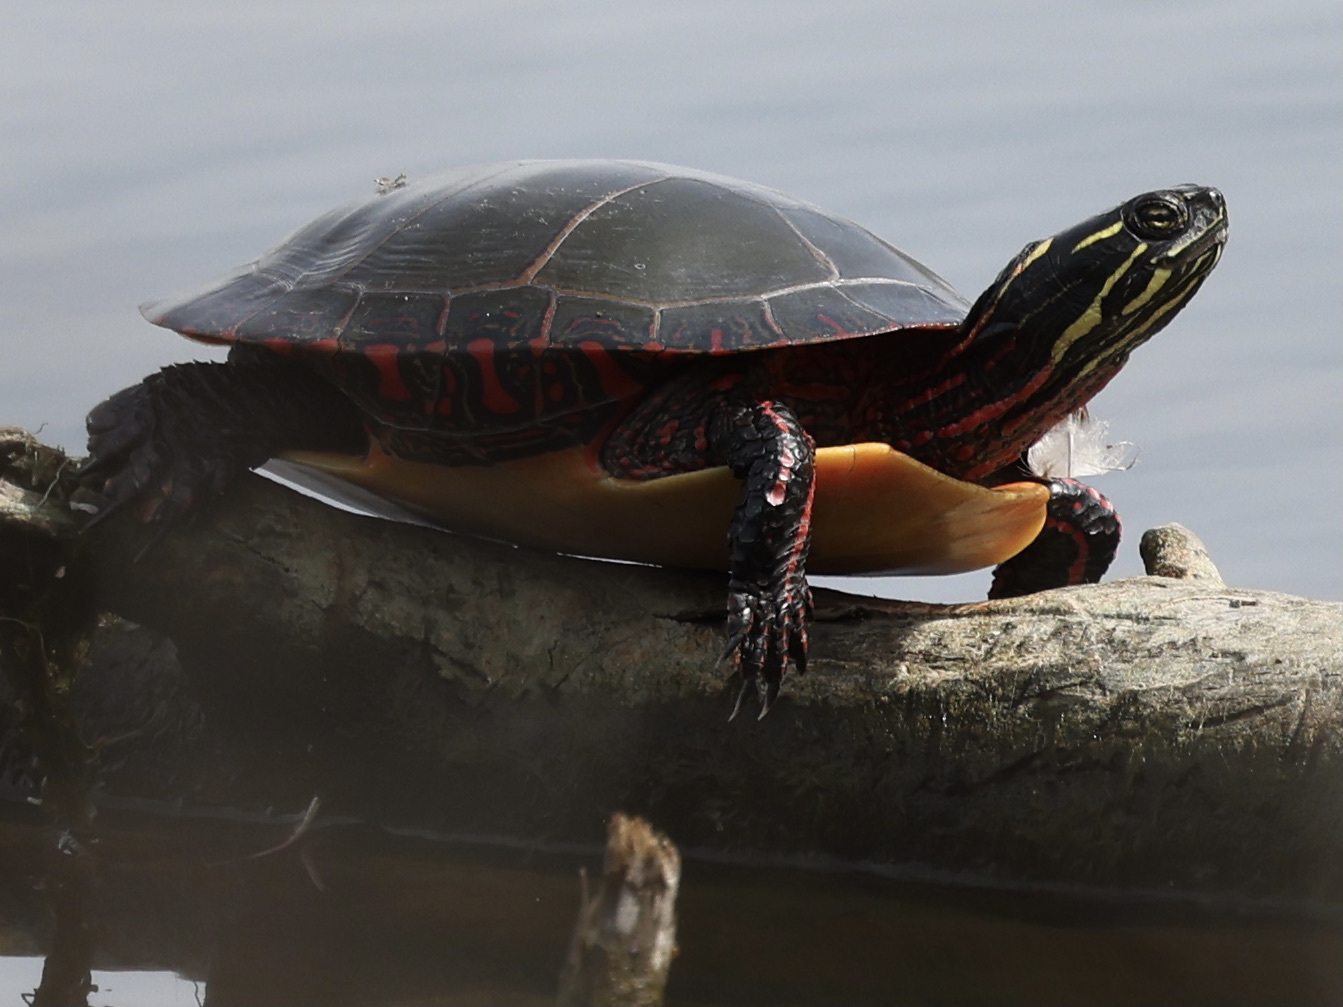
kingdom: Animalia
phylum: Chordata
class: Testudines
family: Emydidae
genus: Chrysemys
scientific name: Chrysemys picta
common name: Painted turtle
